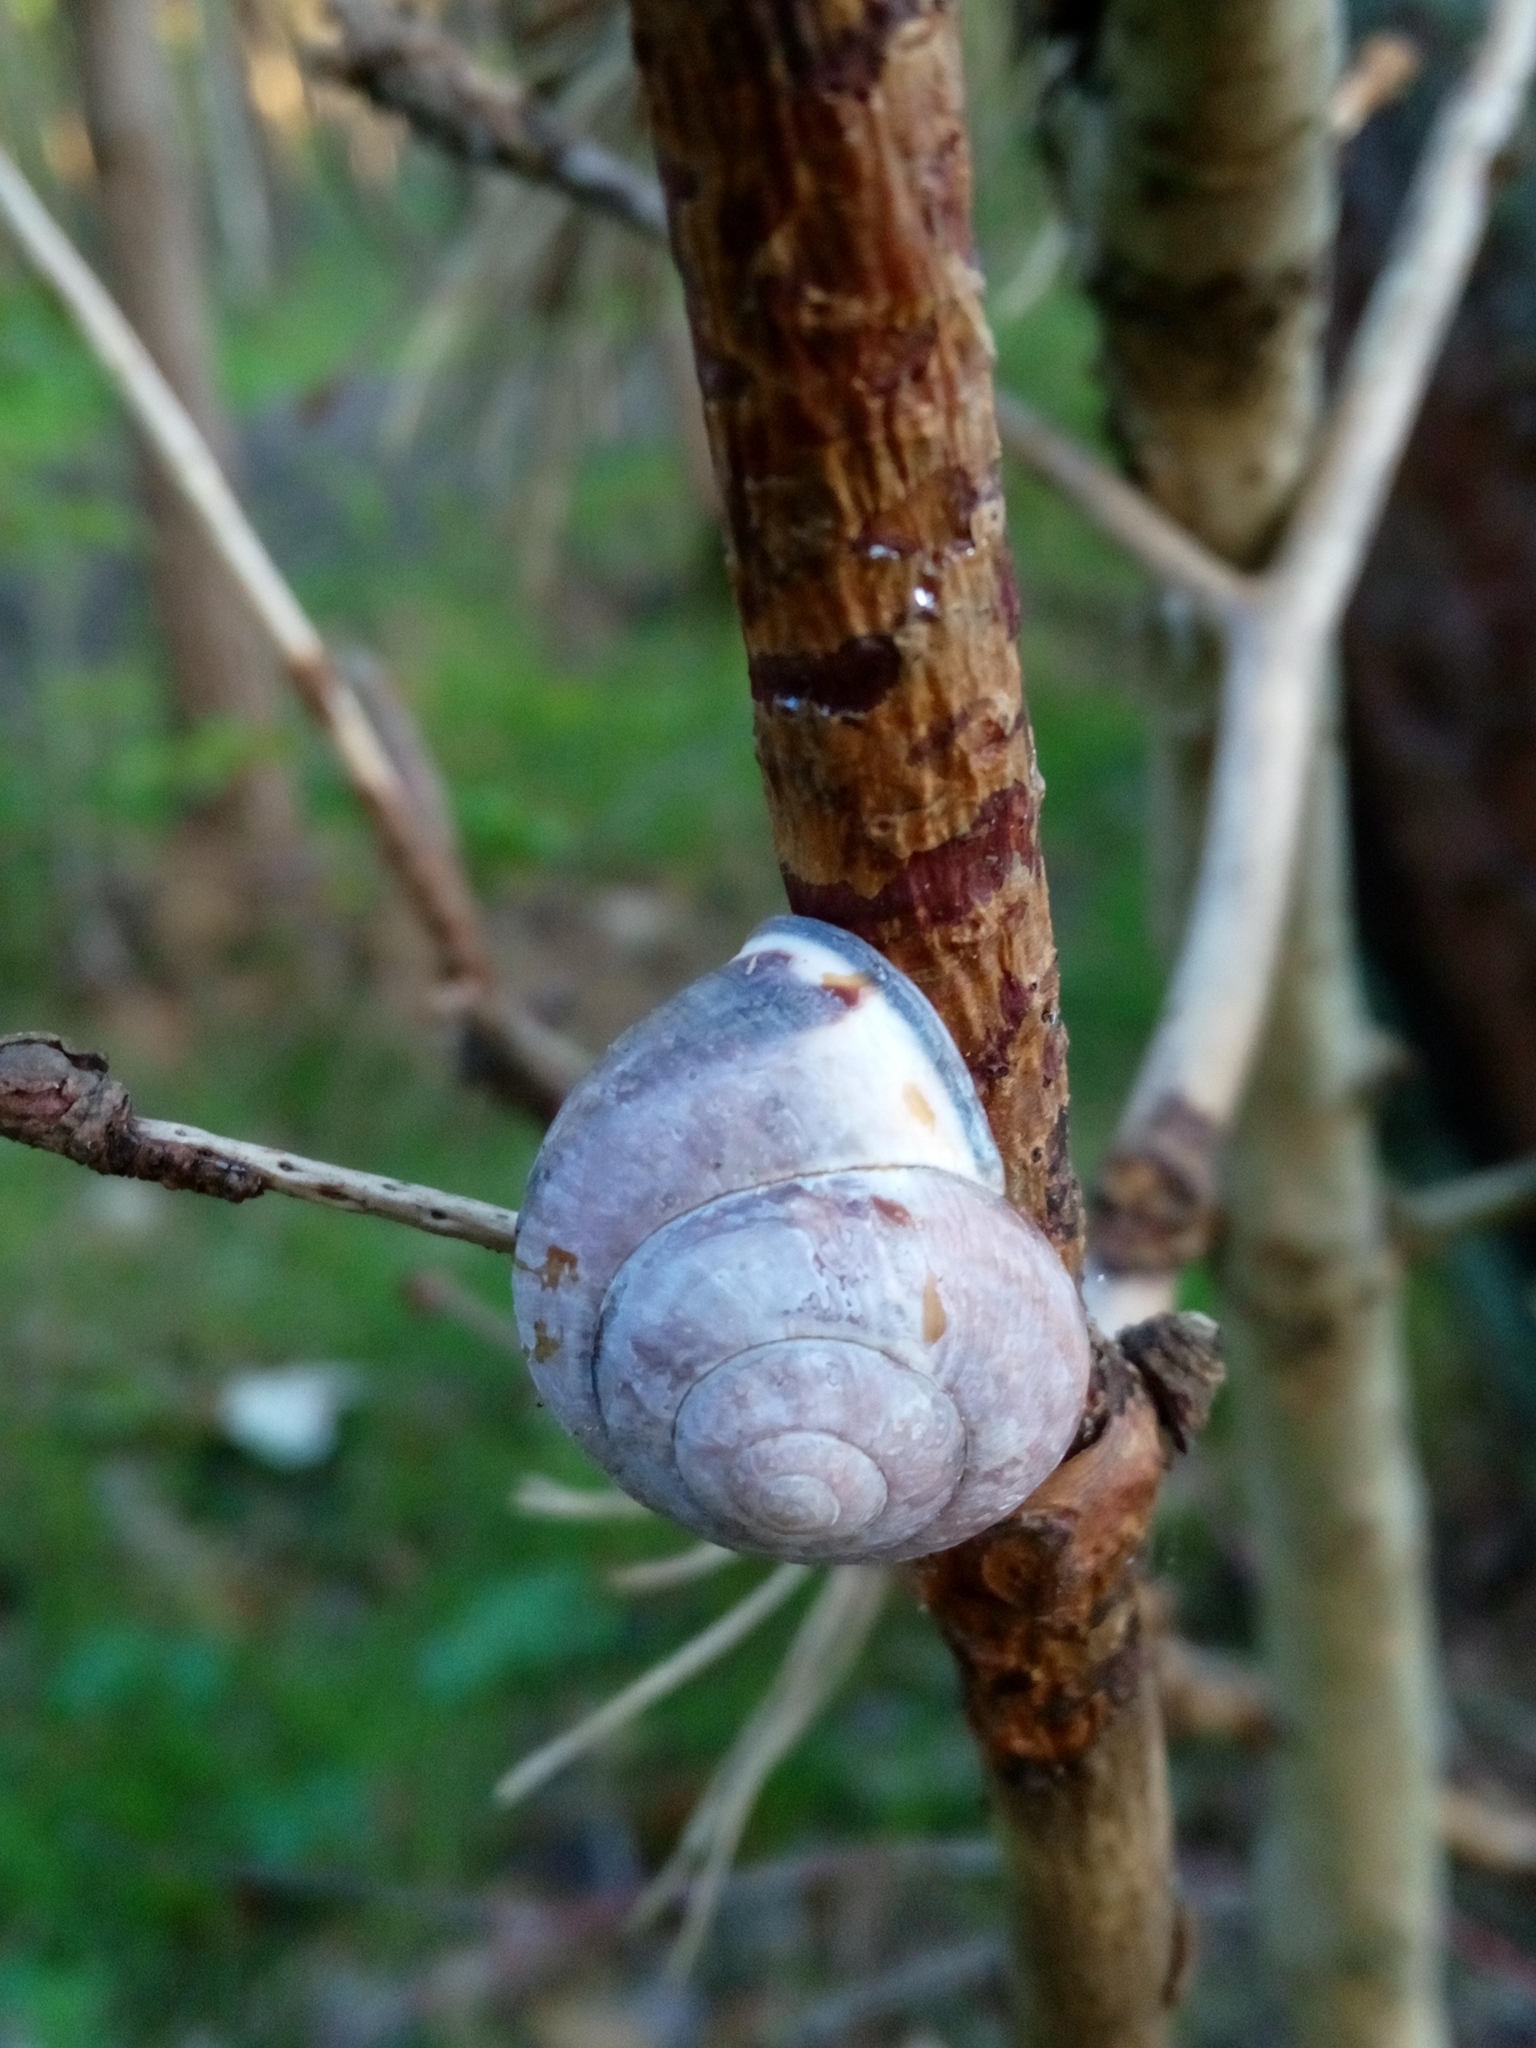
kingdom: Animalia
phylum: Mollusca
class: Gastropoda
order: Stylommatophora
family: Helicidae
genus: Cepaea
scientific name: Cepaea nemoralis
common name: Grovesnail
